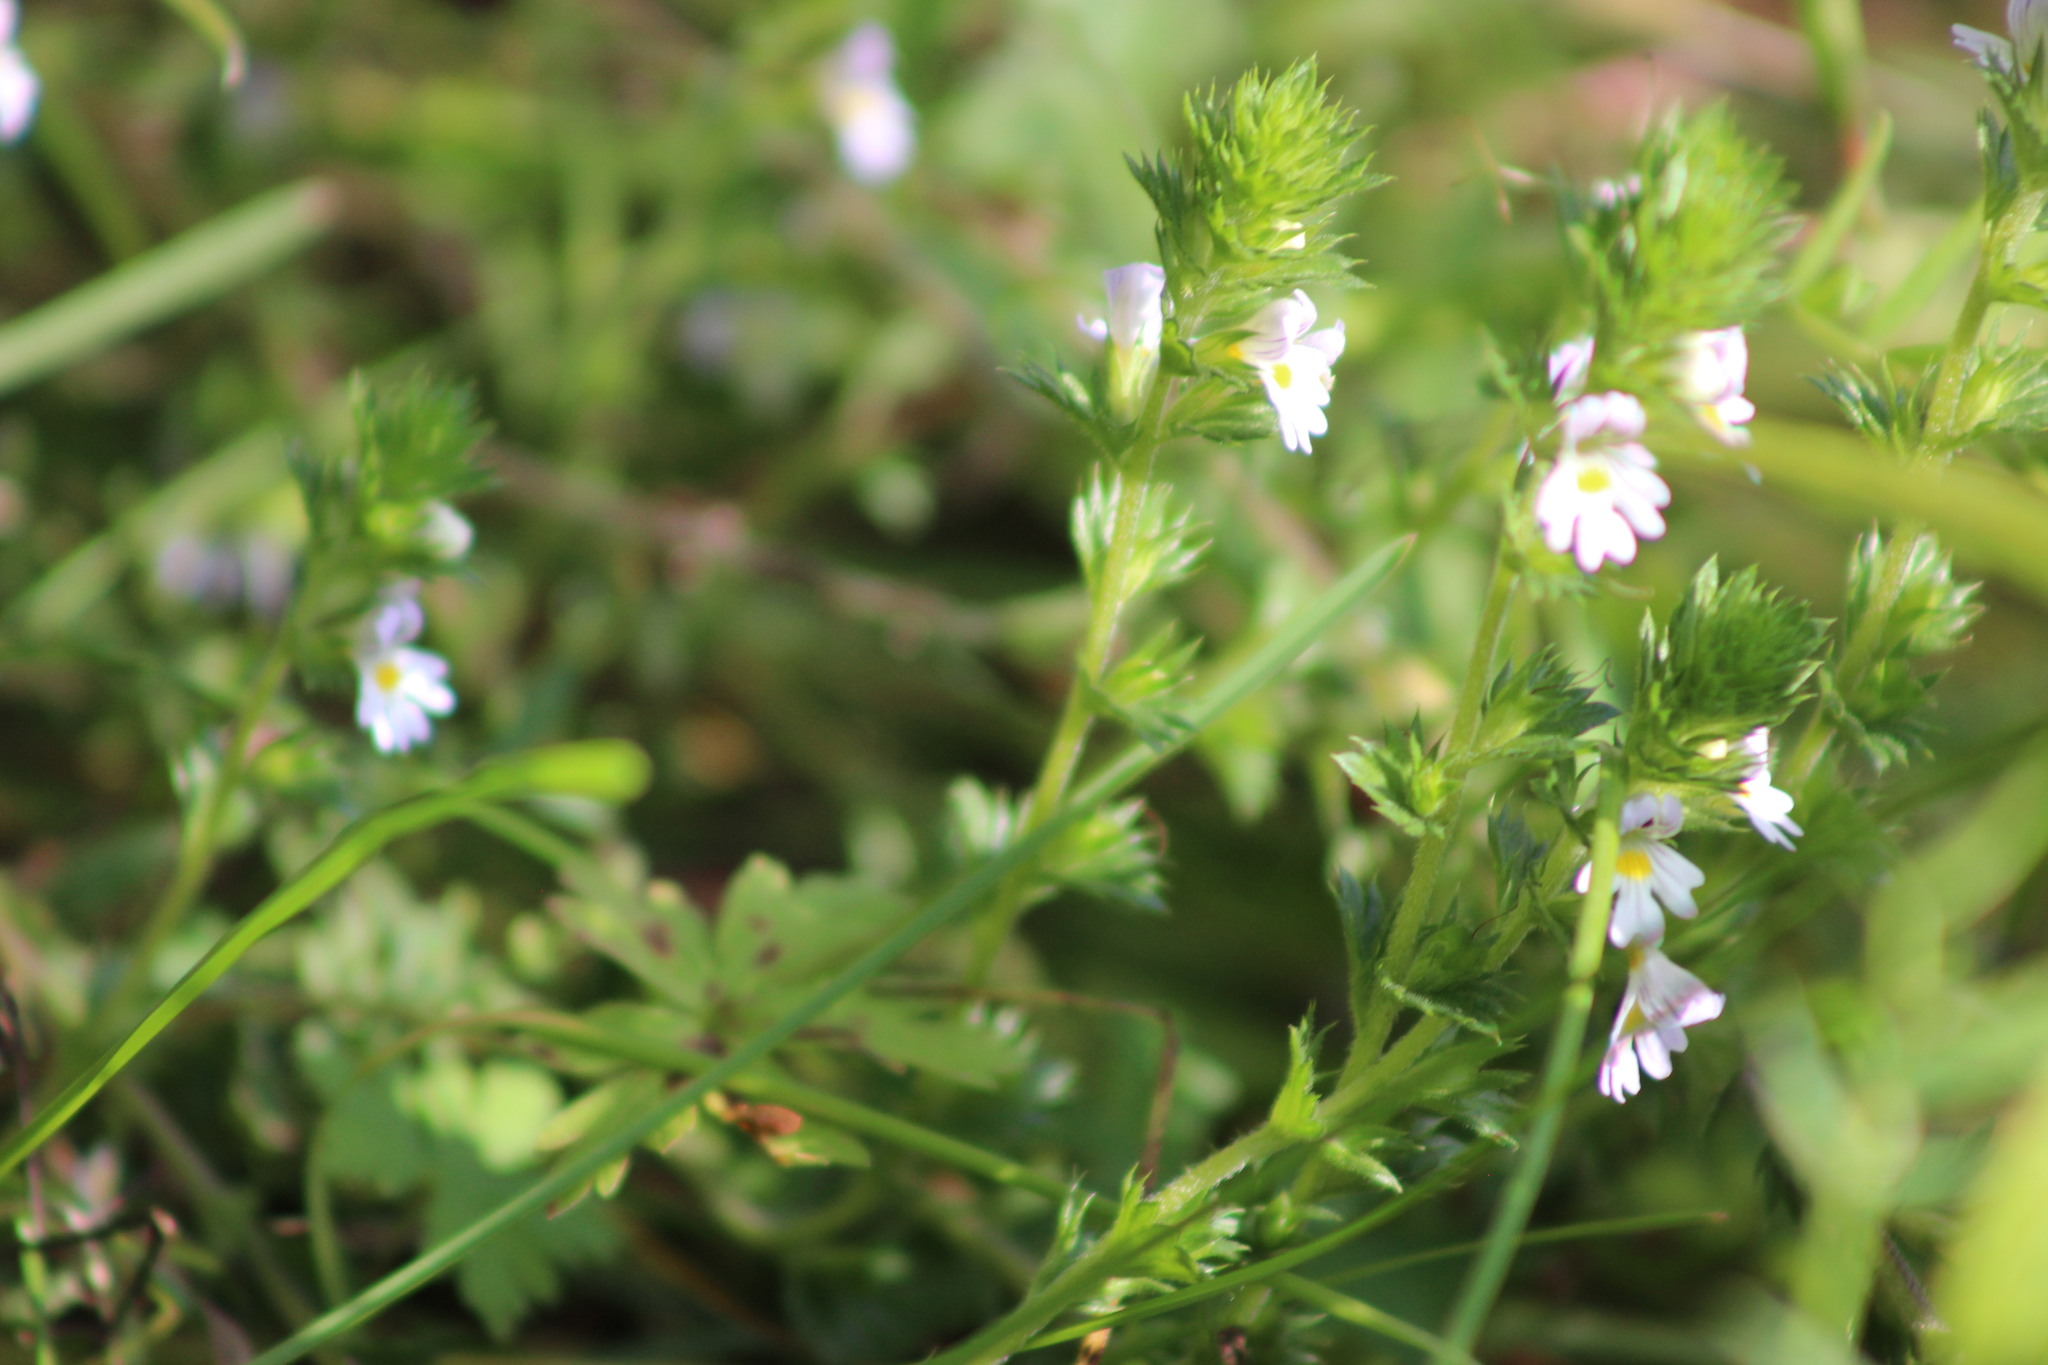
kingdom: Plantae
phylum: Tracheophyta
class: Magnoliopsida
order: Lamiales
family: Orobanchaceae
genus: Euphrasia
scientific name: Euphrasia vernalis
